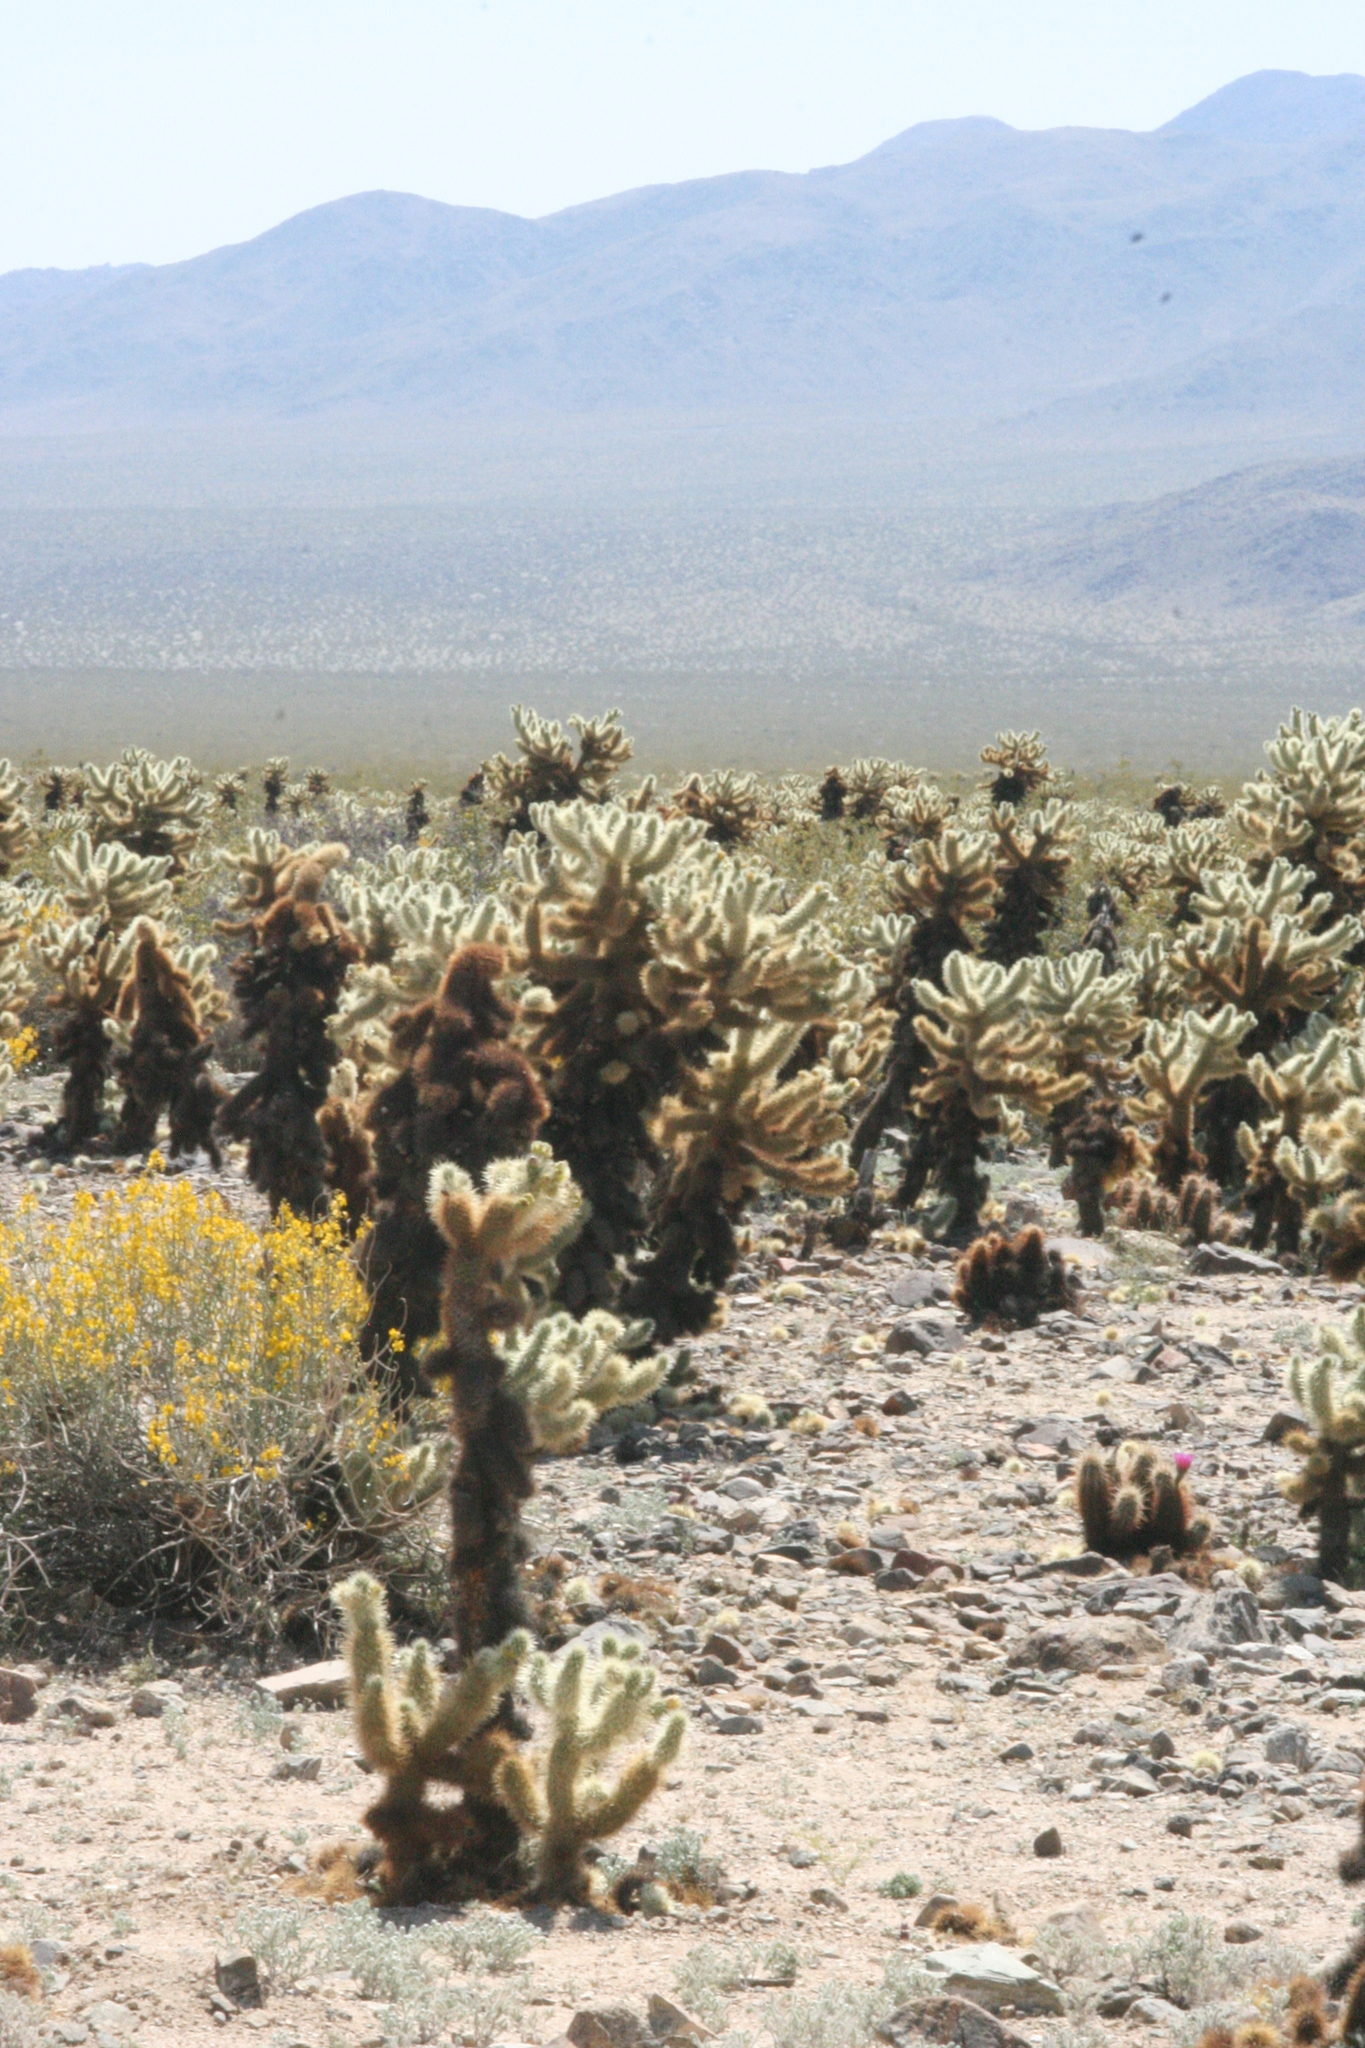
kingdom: Plantae
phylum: Tracheophyta
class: Magnoliopsida
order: Caryophyllales
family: Cactaceae
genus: Cylindropuntia
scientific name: Cylindropuntia fosbergii
